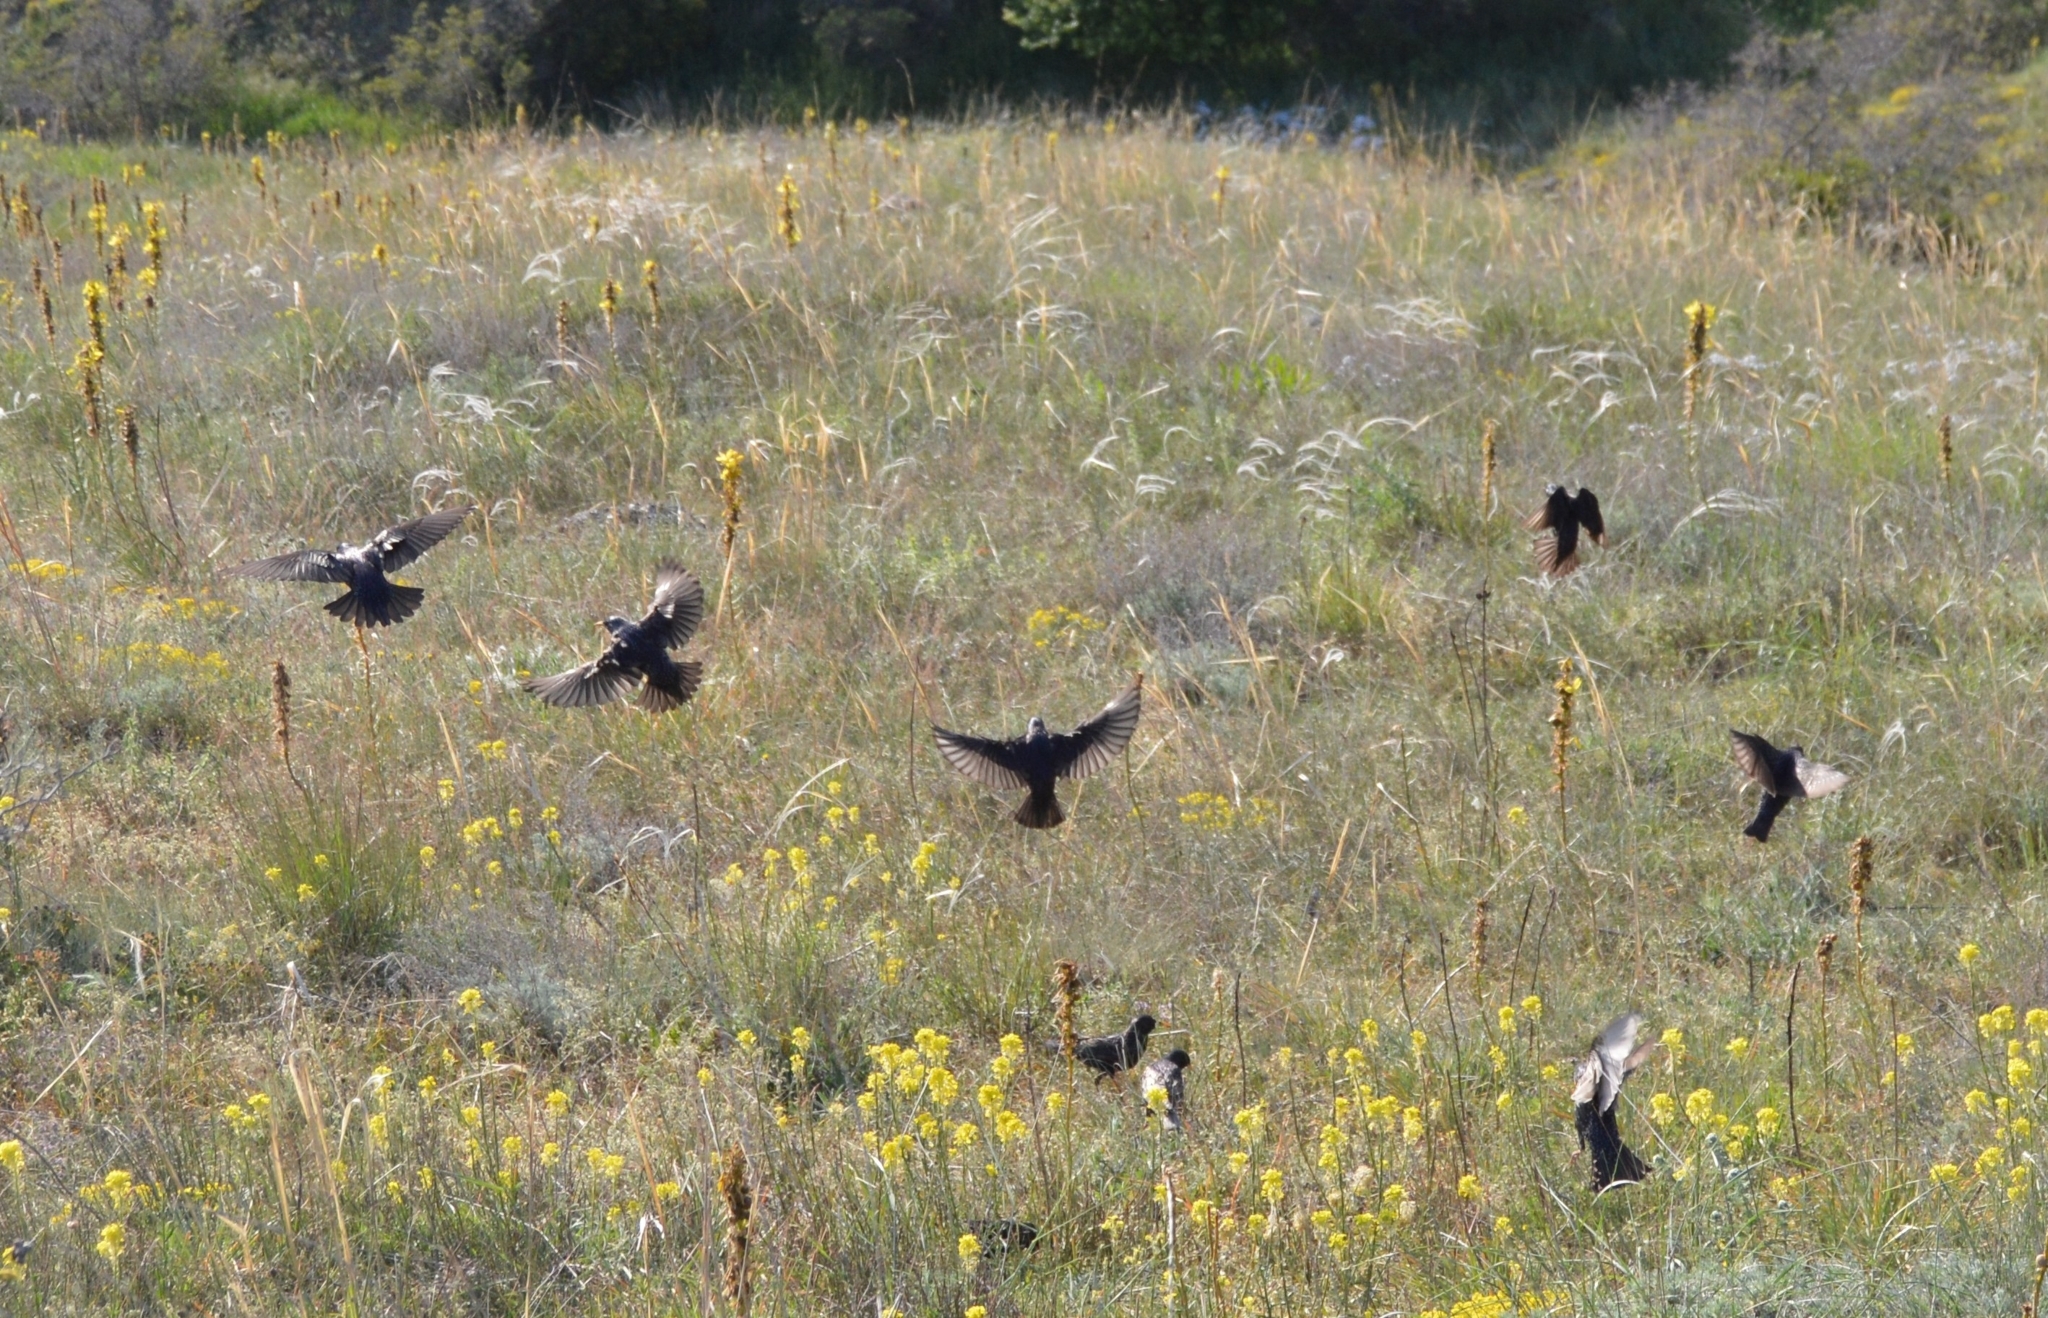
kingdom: Animalia
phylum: Chordata
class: Aves
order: Passeriformes
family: Turdidae
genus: Turdus
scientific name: Turdus merula
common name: Common blackbird
